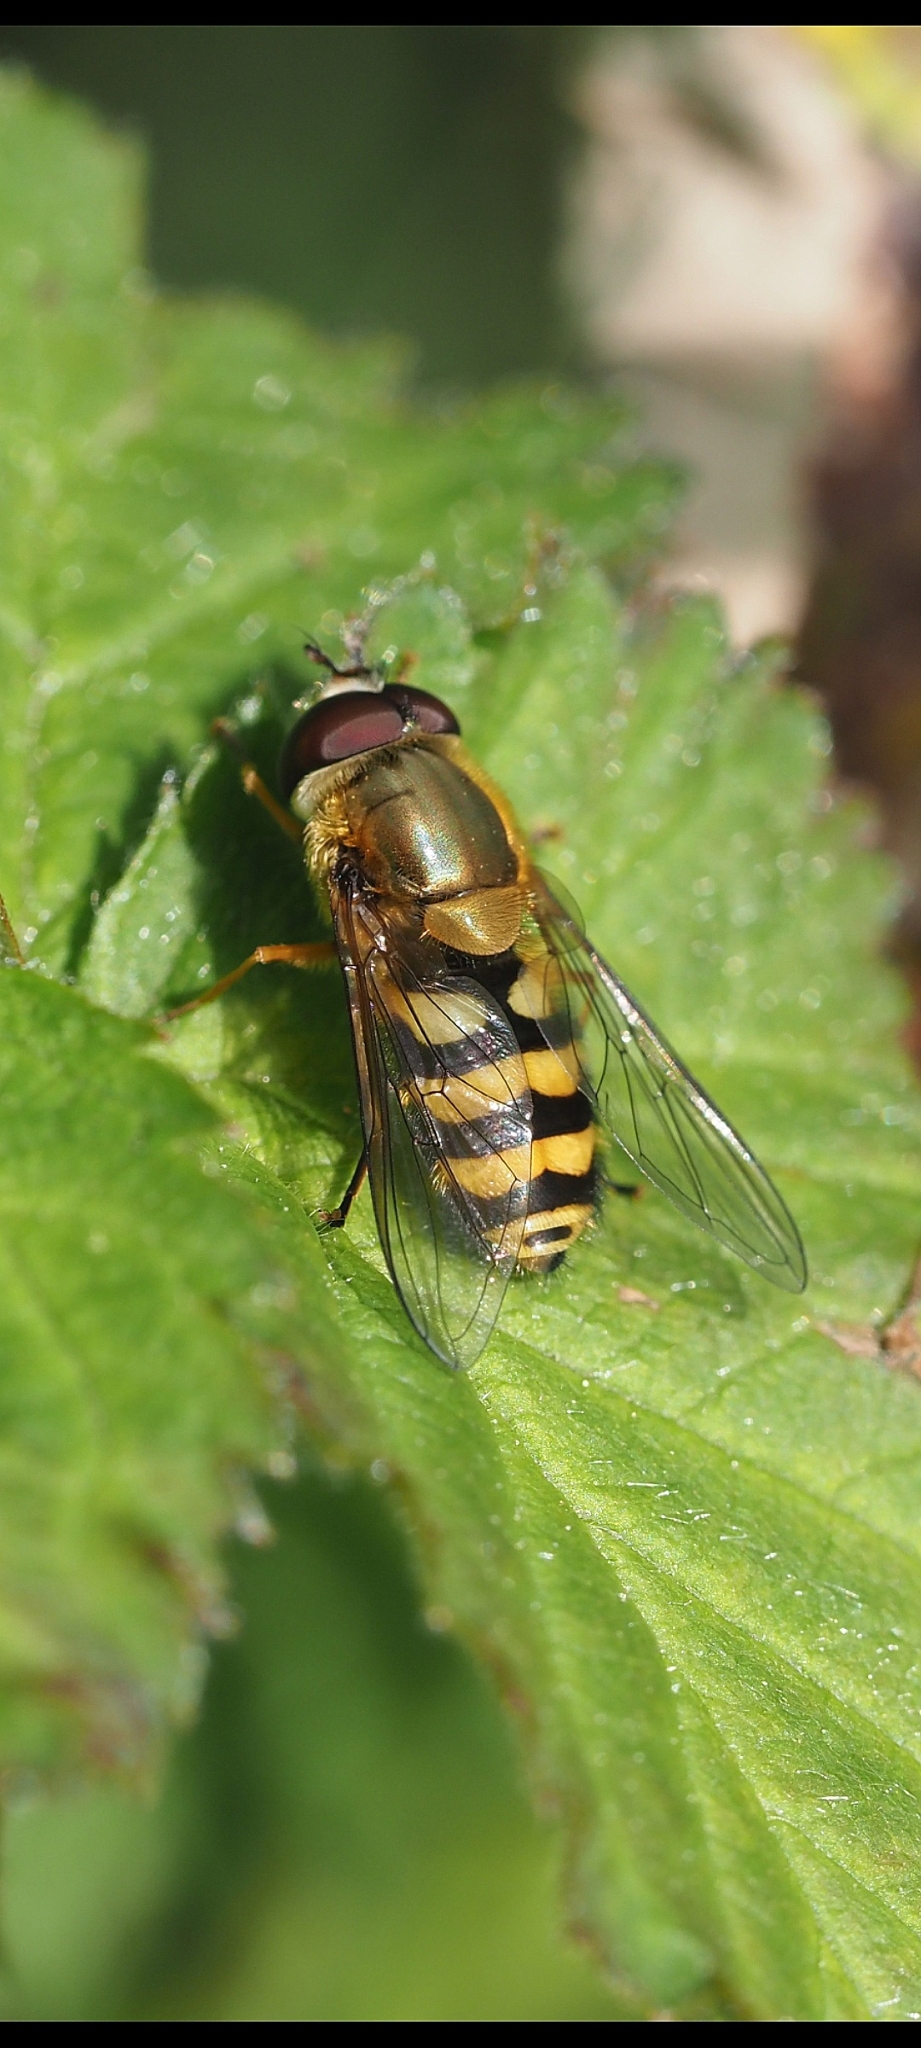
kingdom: Animalia
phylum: Arthropoda
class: Insecta
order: Diptera
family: Syrphidae
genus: Syrphus
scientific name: Syrphus
